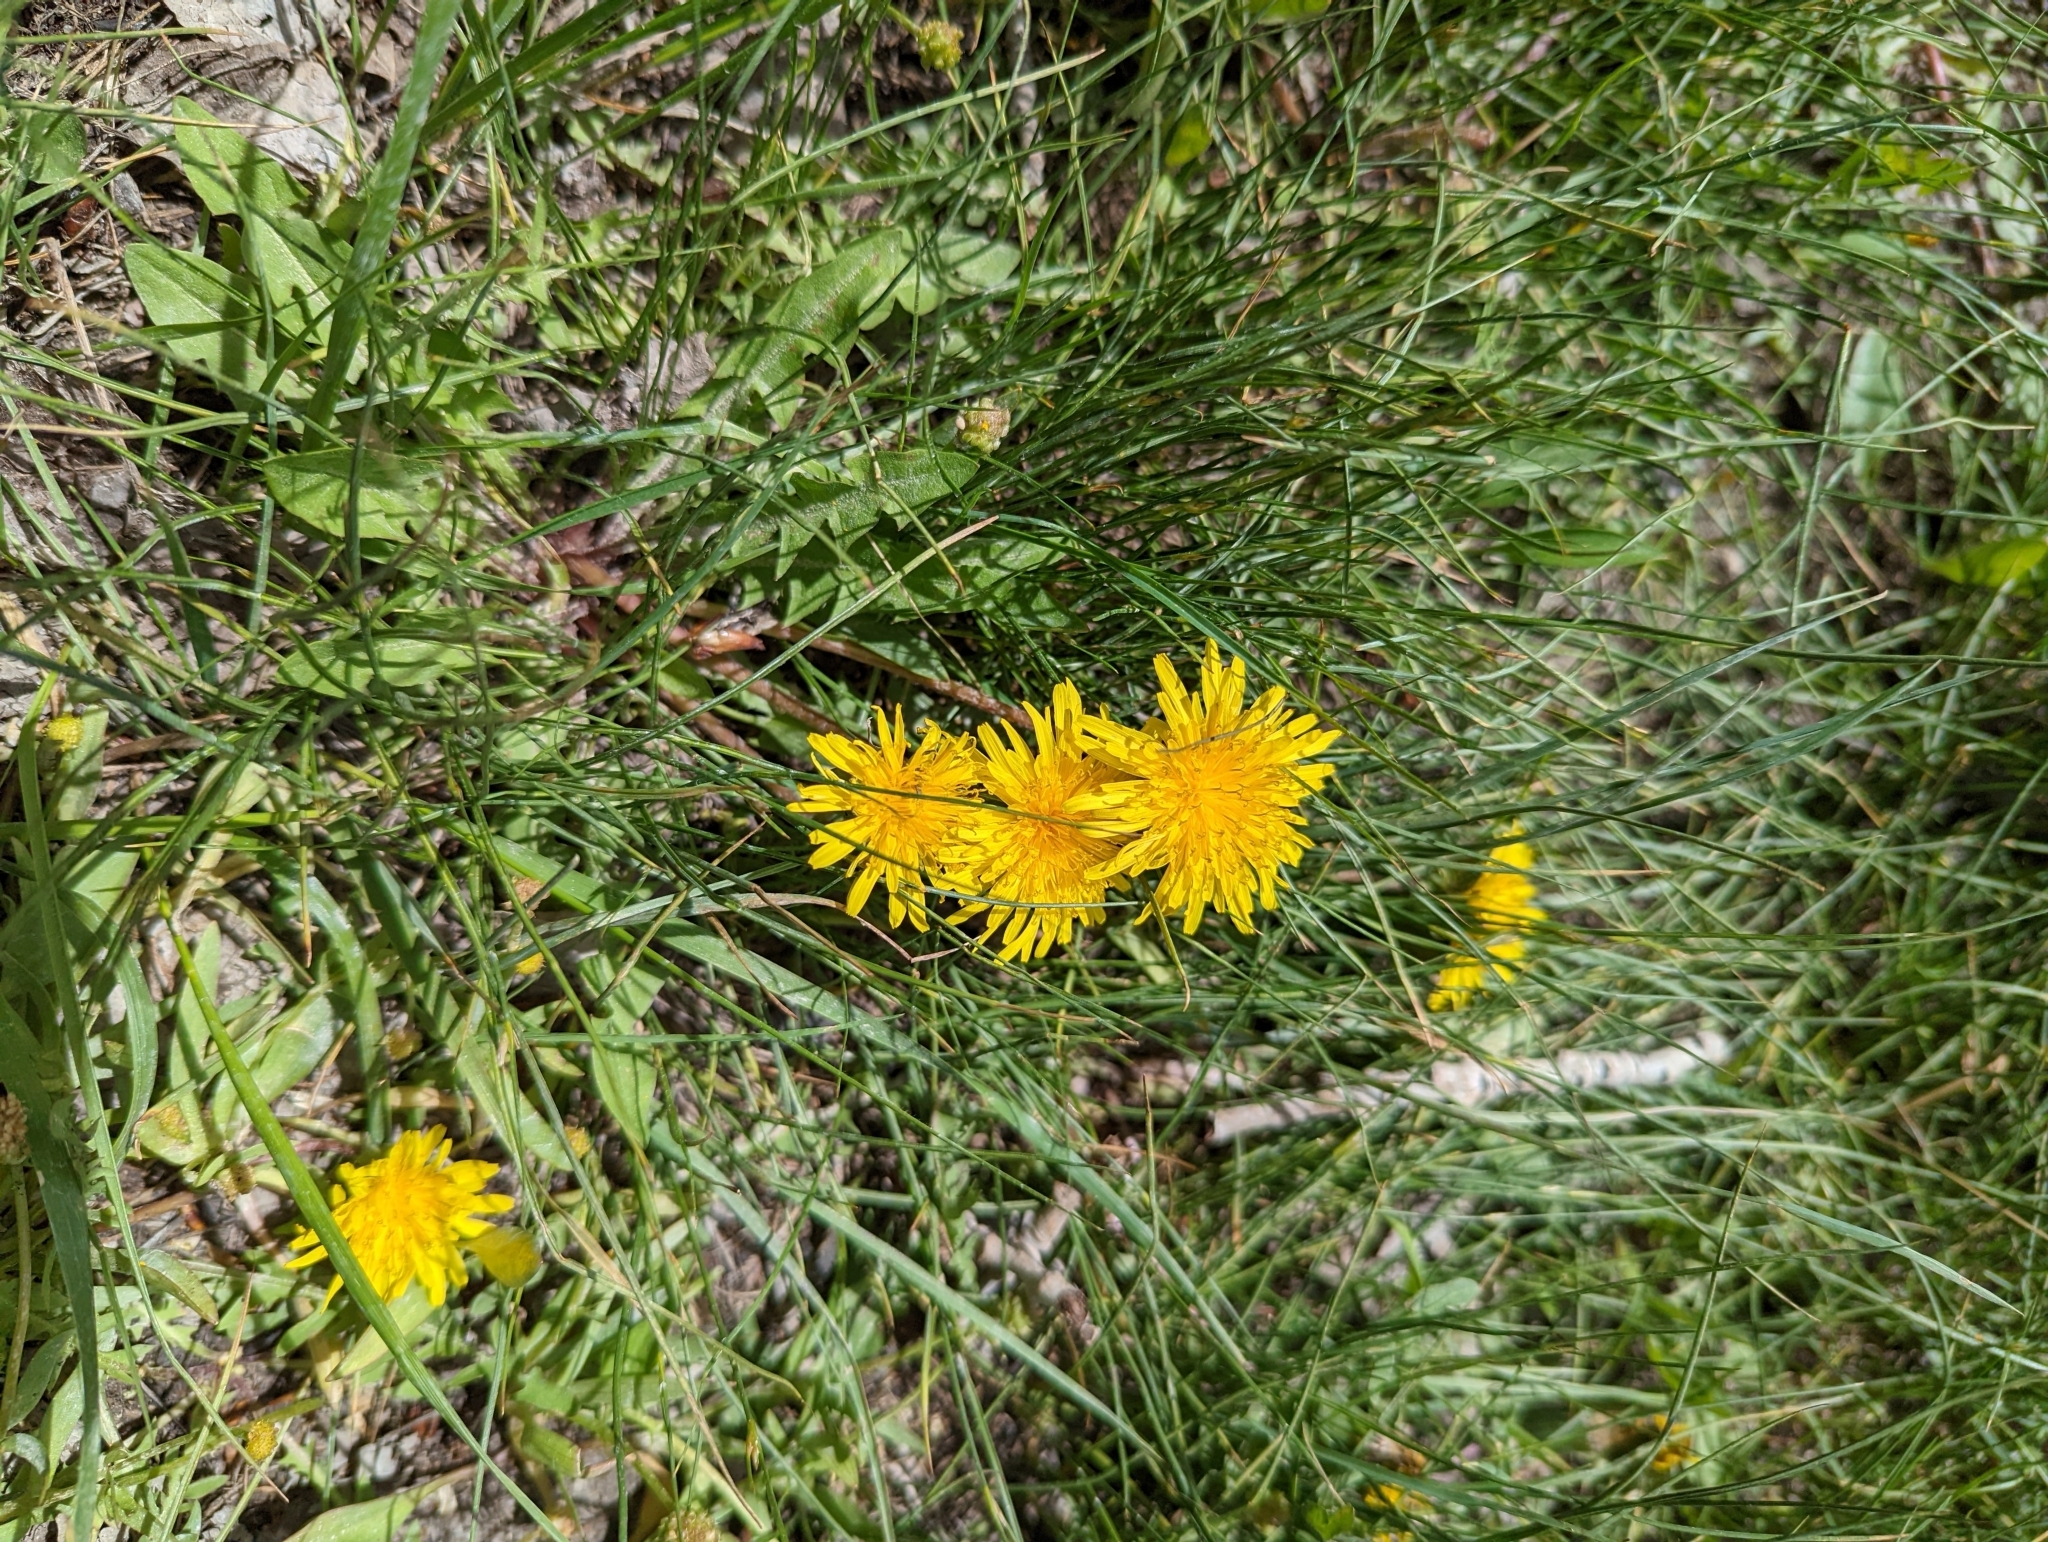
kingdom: Plantae
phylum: Tracheophyta
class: Magnoliopsida
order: Asterales
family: Asteraceae
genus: Taraxacum
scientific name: Taraxacum officinale
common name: Common dandelion
